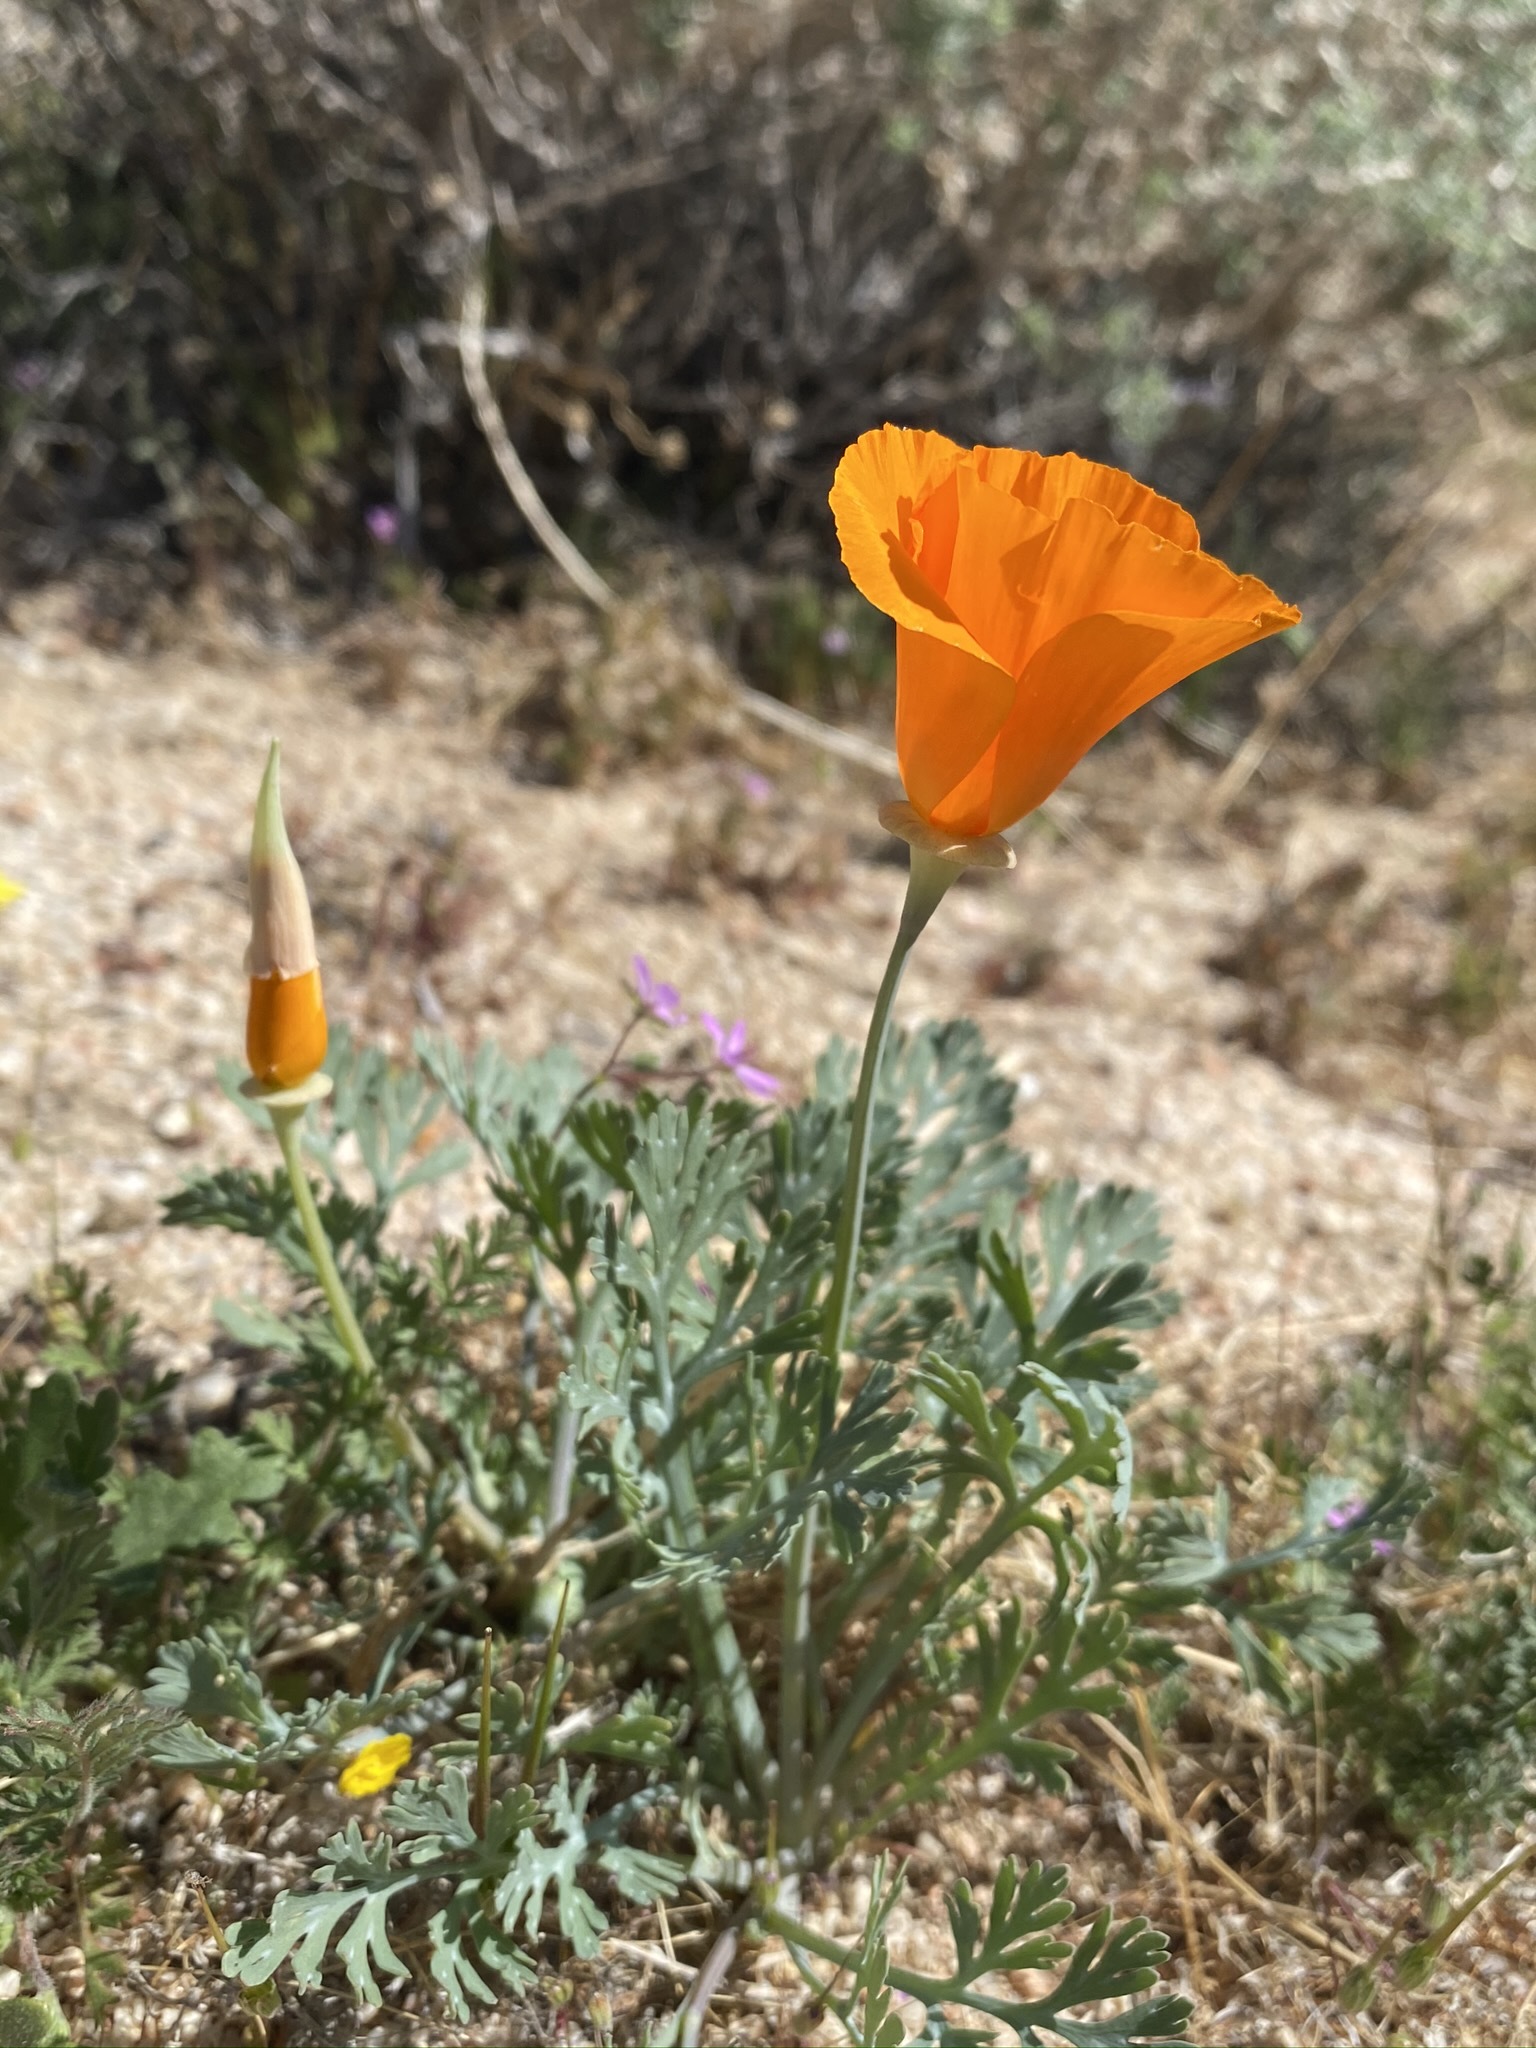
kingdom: Plantae
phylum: Tracheophyta
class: Magnoliopsida
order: Ranunculales
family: Papaveraceae
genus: Eschscholzia
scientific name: Eschscholzia californica
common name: California poppy
